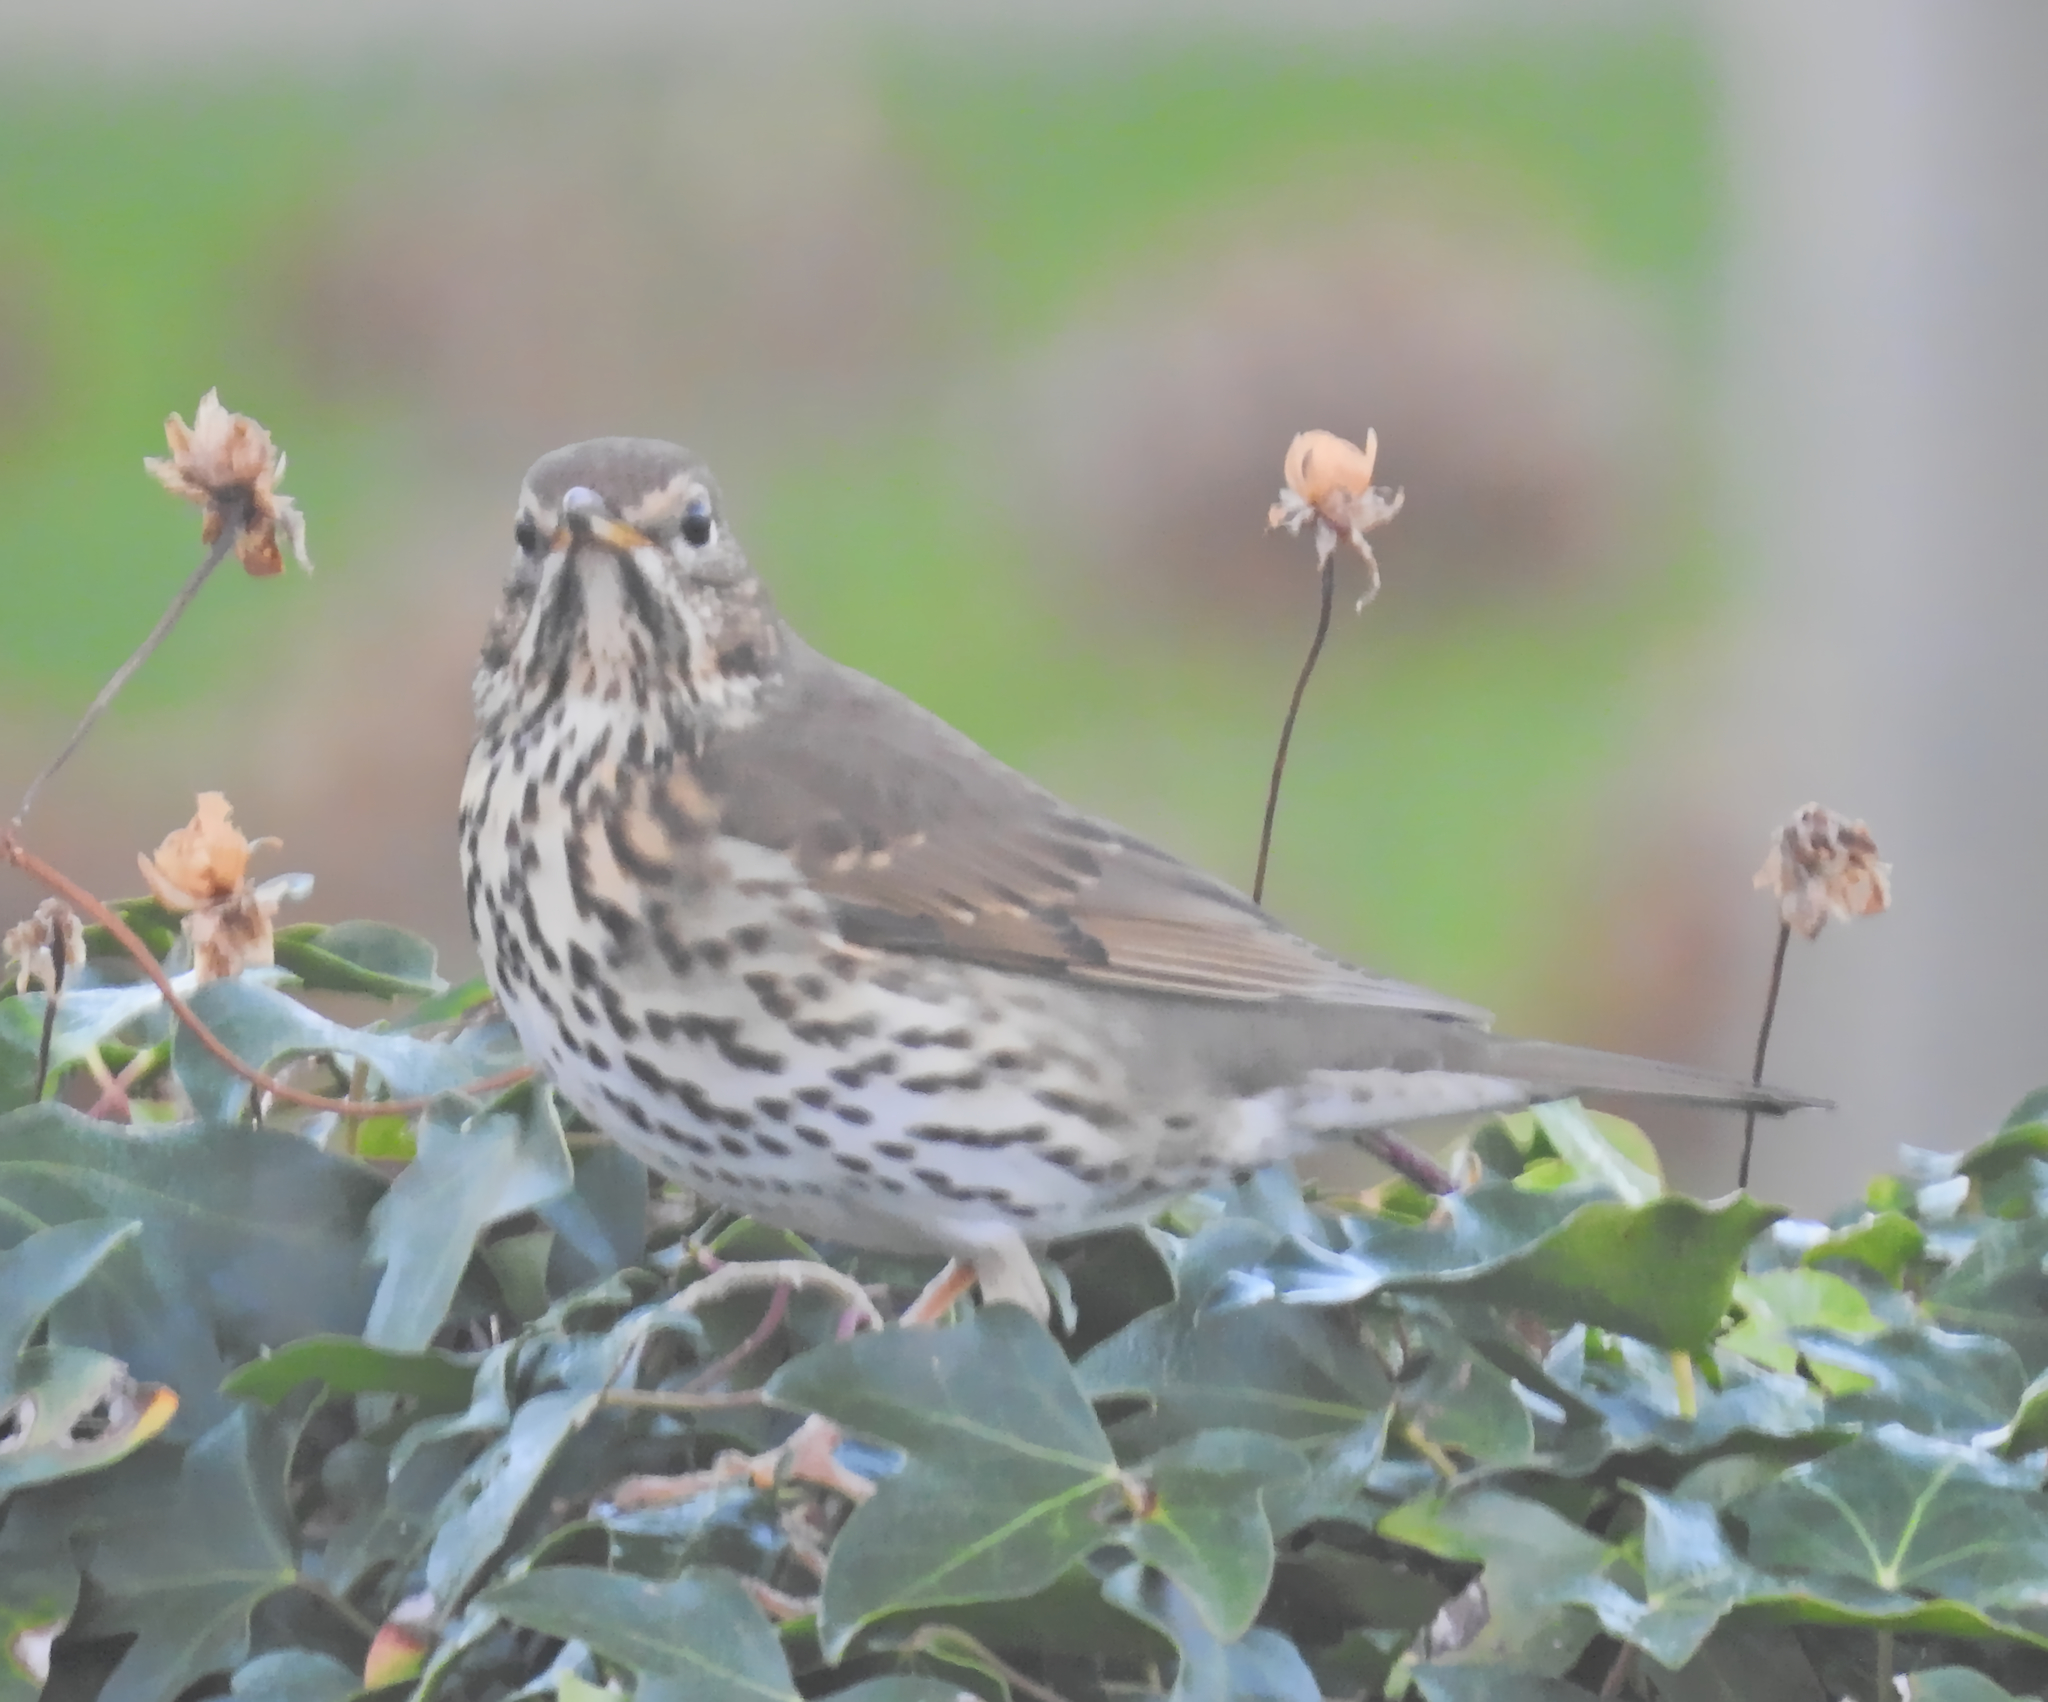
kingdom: Animalia
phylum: Chordata
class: Aves
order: Passeriformes
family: Turdidae
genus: Turdus
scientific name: Turdus philomelos
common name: Song thrush
